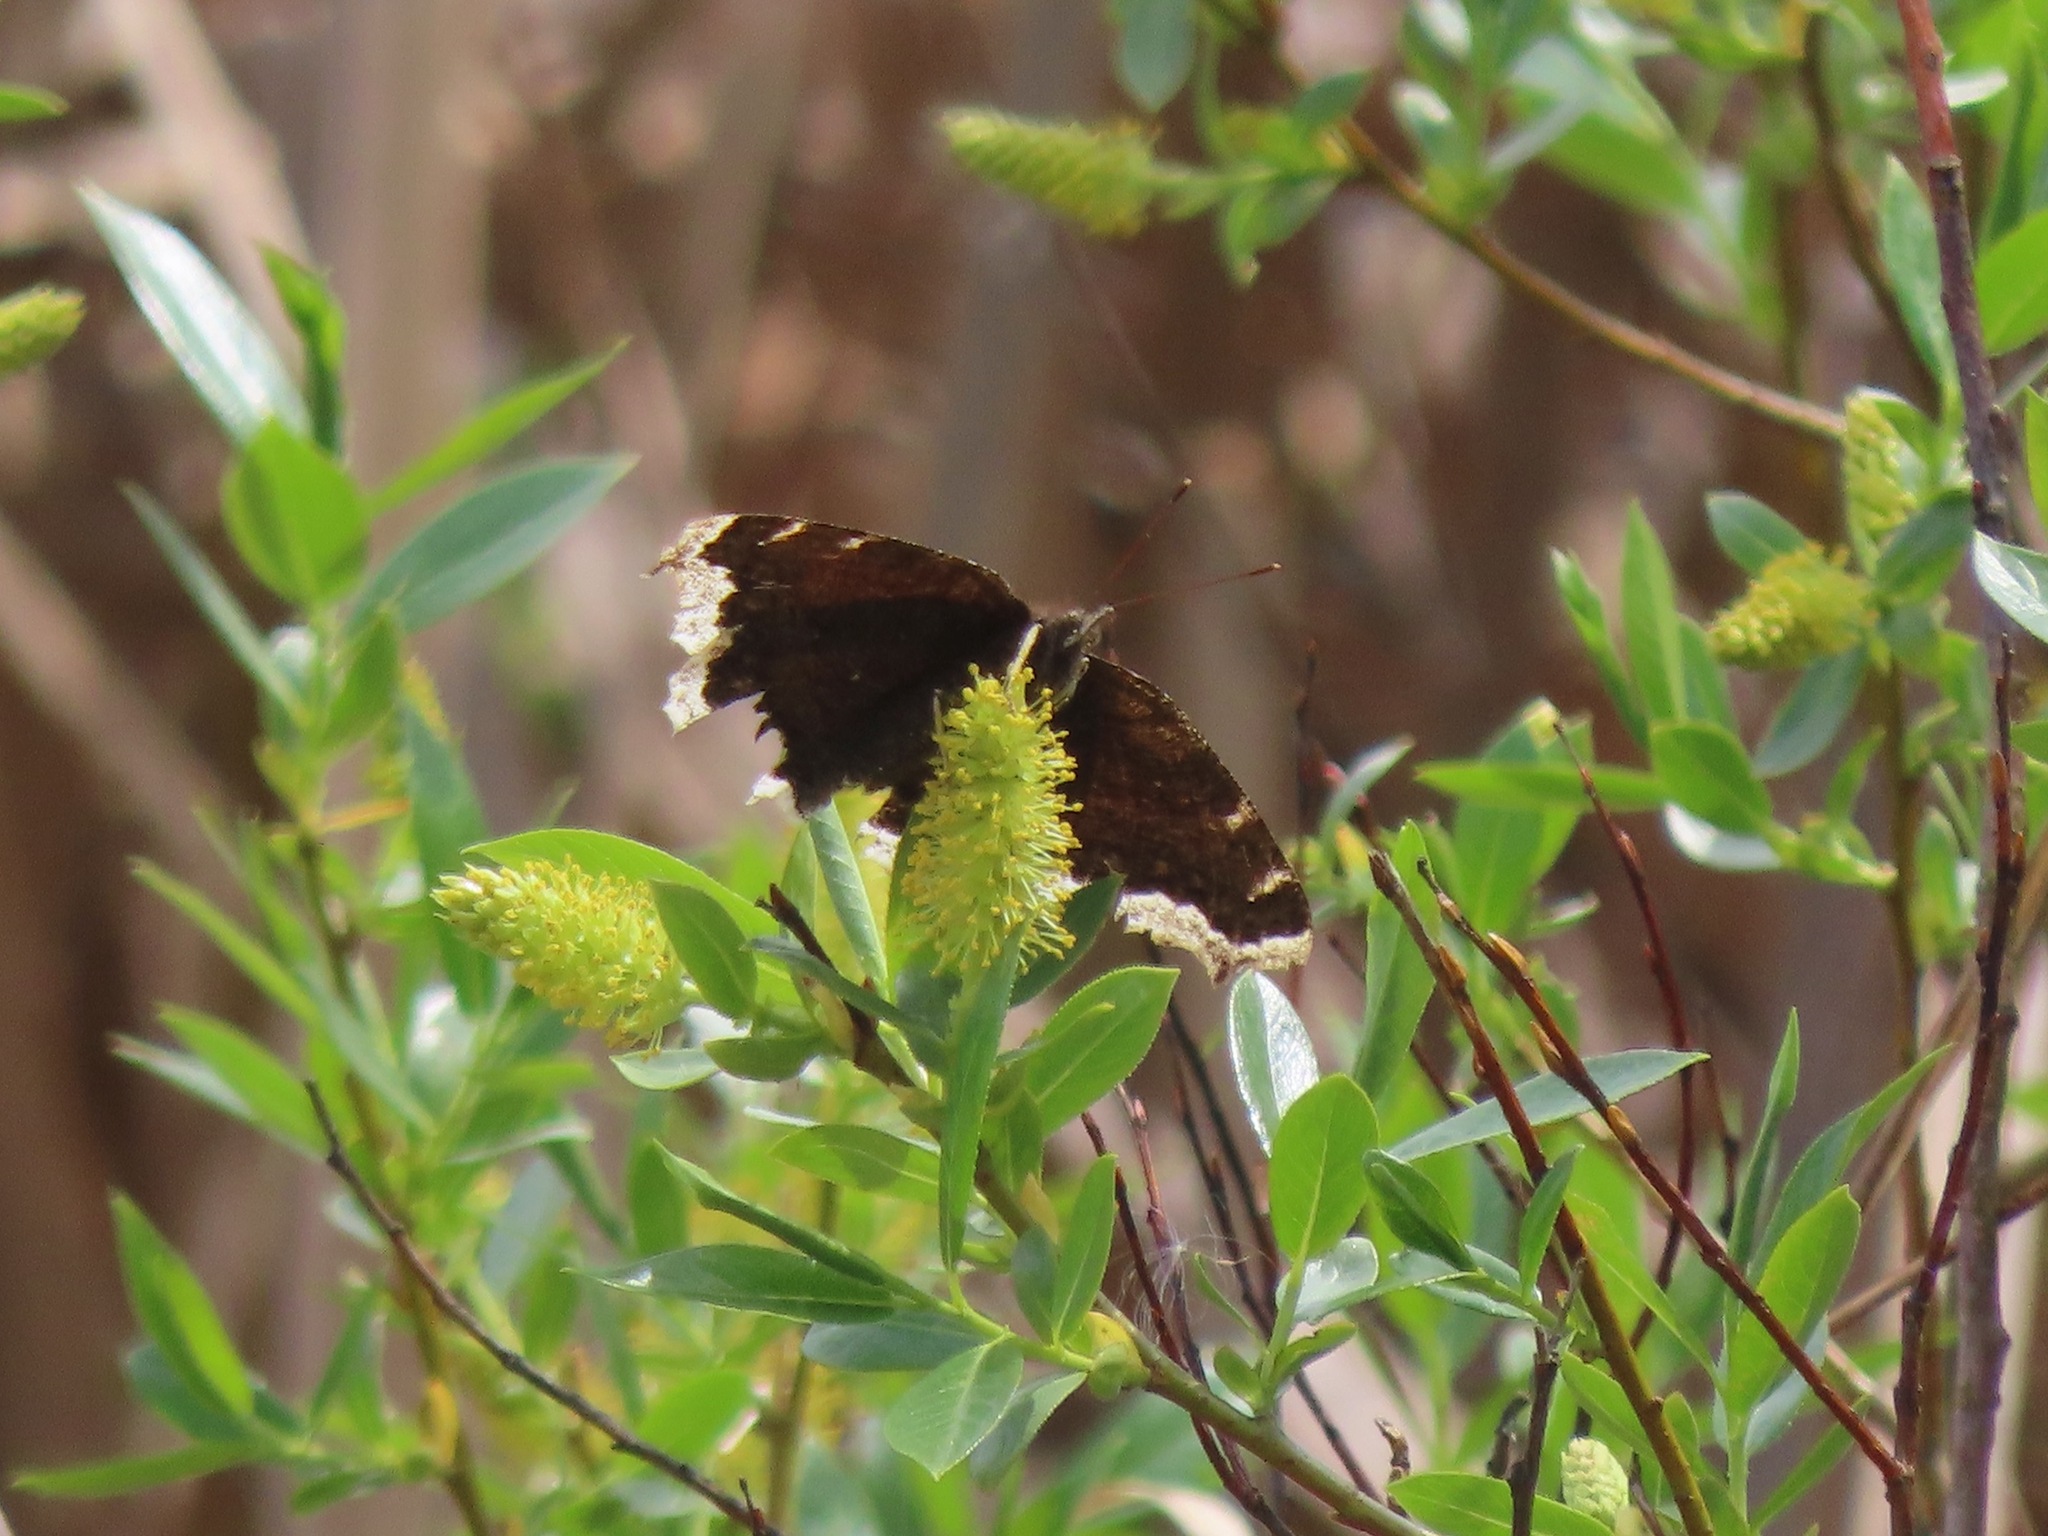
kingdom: Animalia
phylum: Arthropoda
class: Insecta
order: Lepidoptera
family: Nymphalidae
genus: Nymphalis
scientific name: Nymphalis antiopa
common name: Camberwell beauty
